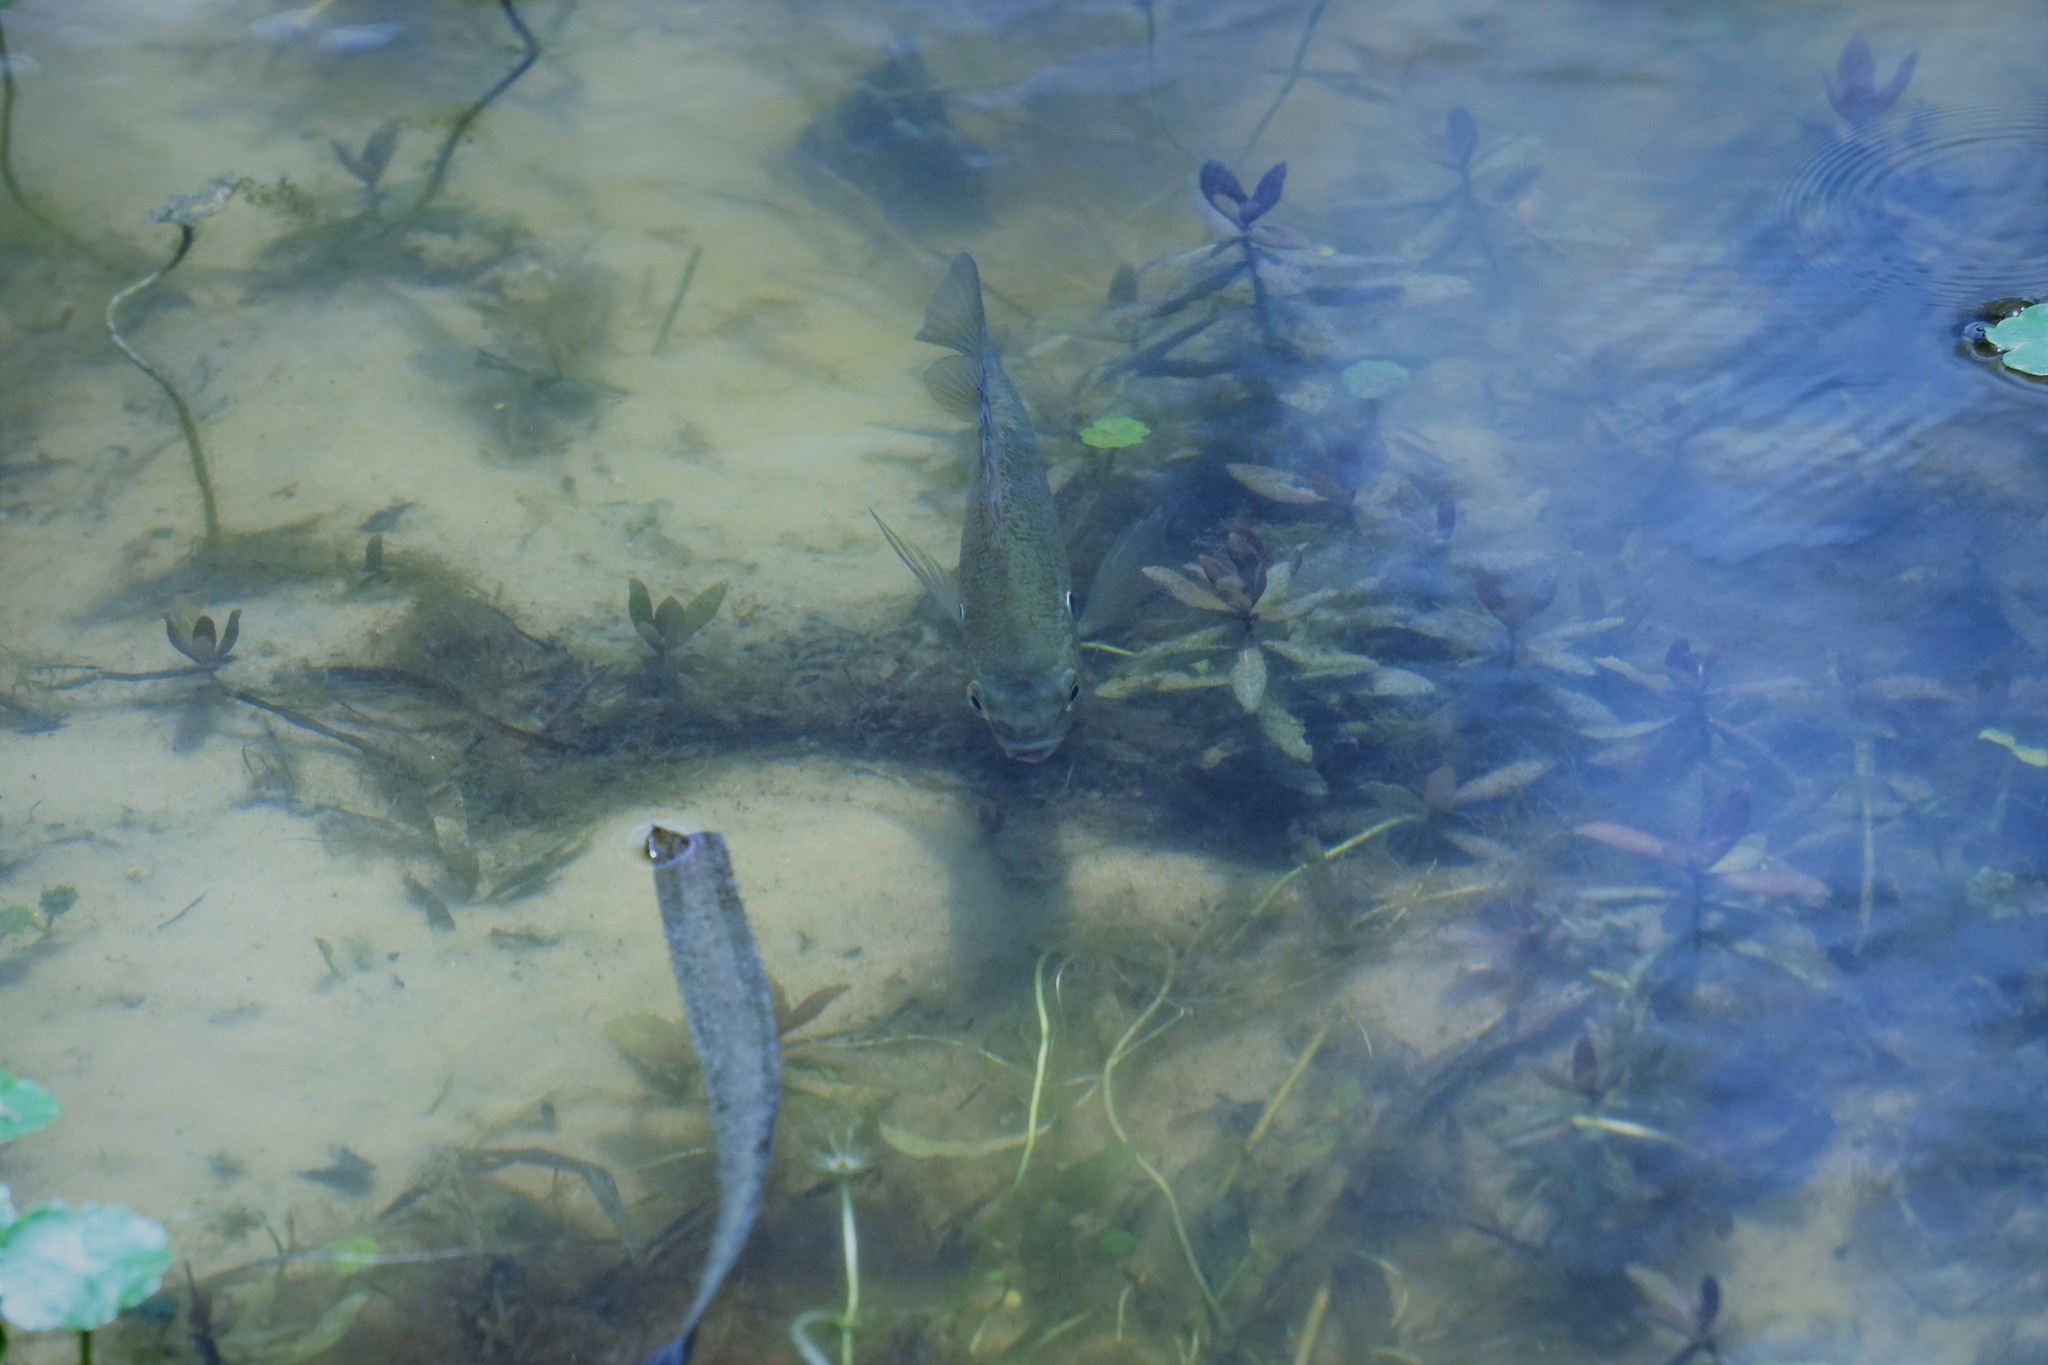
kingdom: Animalia
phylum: Chordata
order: Perciformes
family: Centrarchidae
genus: Lepomis
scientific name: Lepomis microlophus
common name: Redear sunfish
